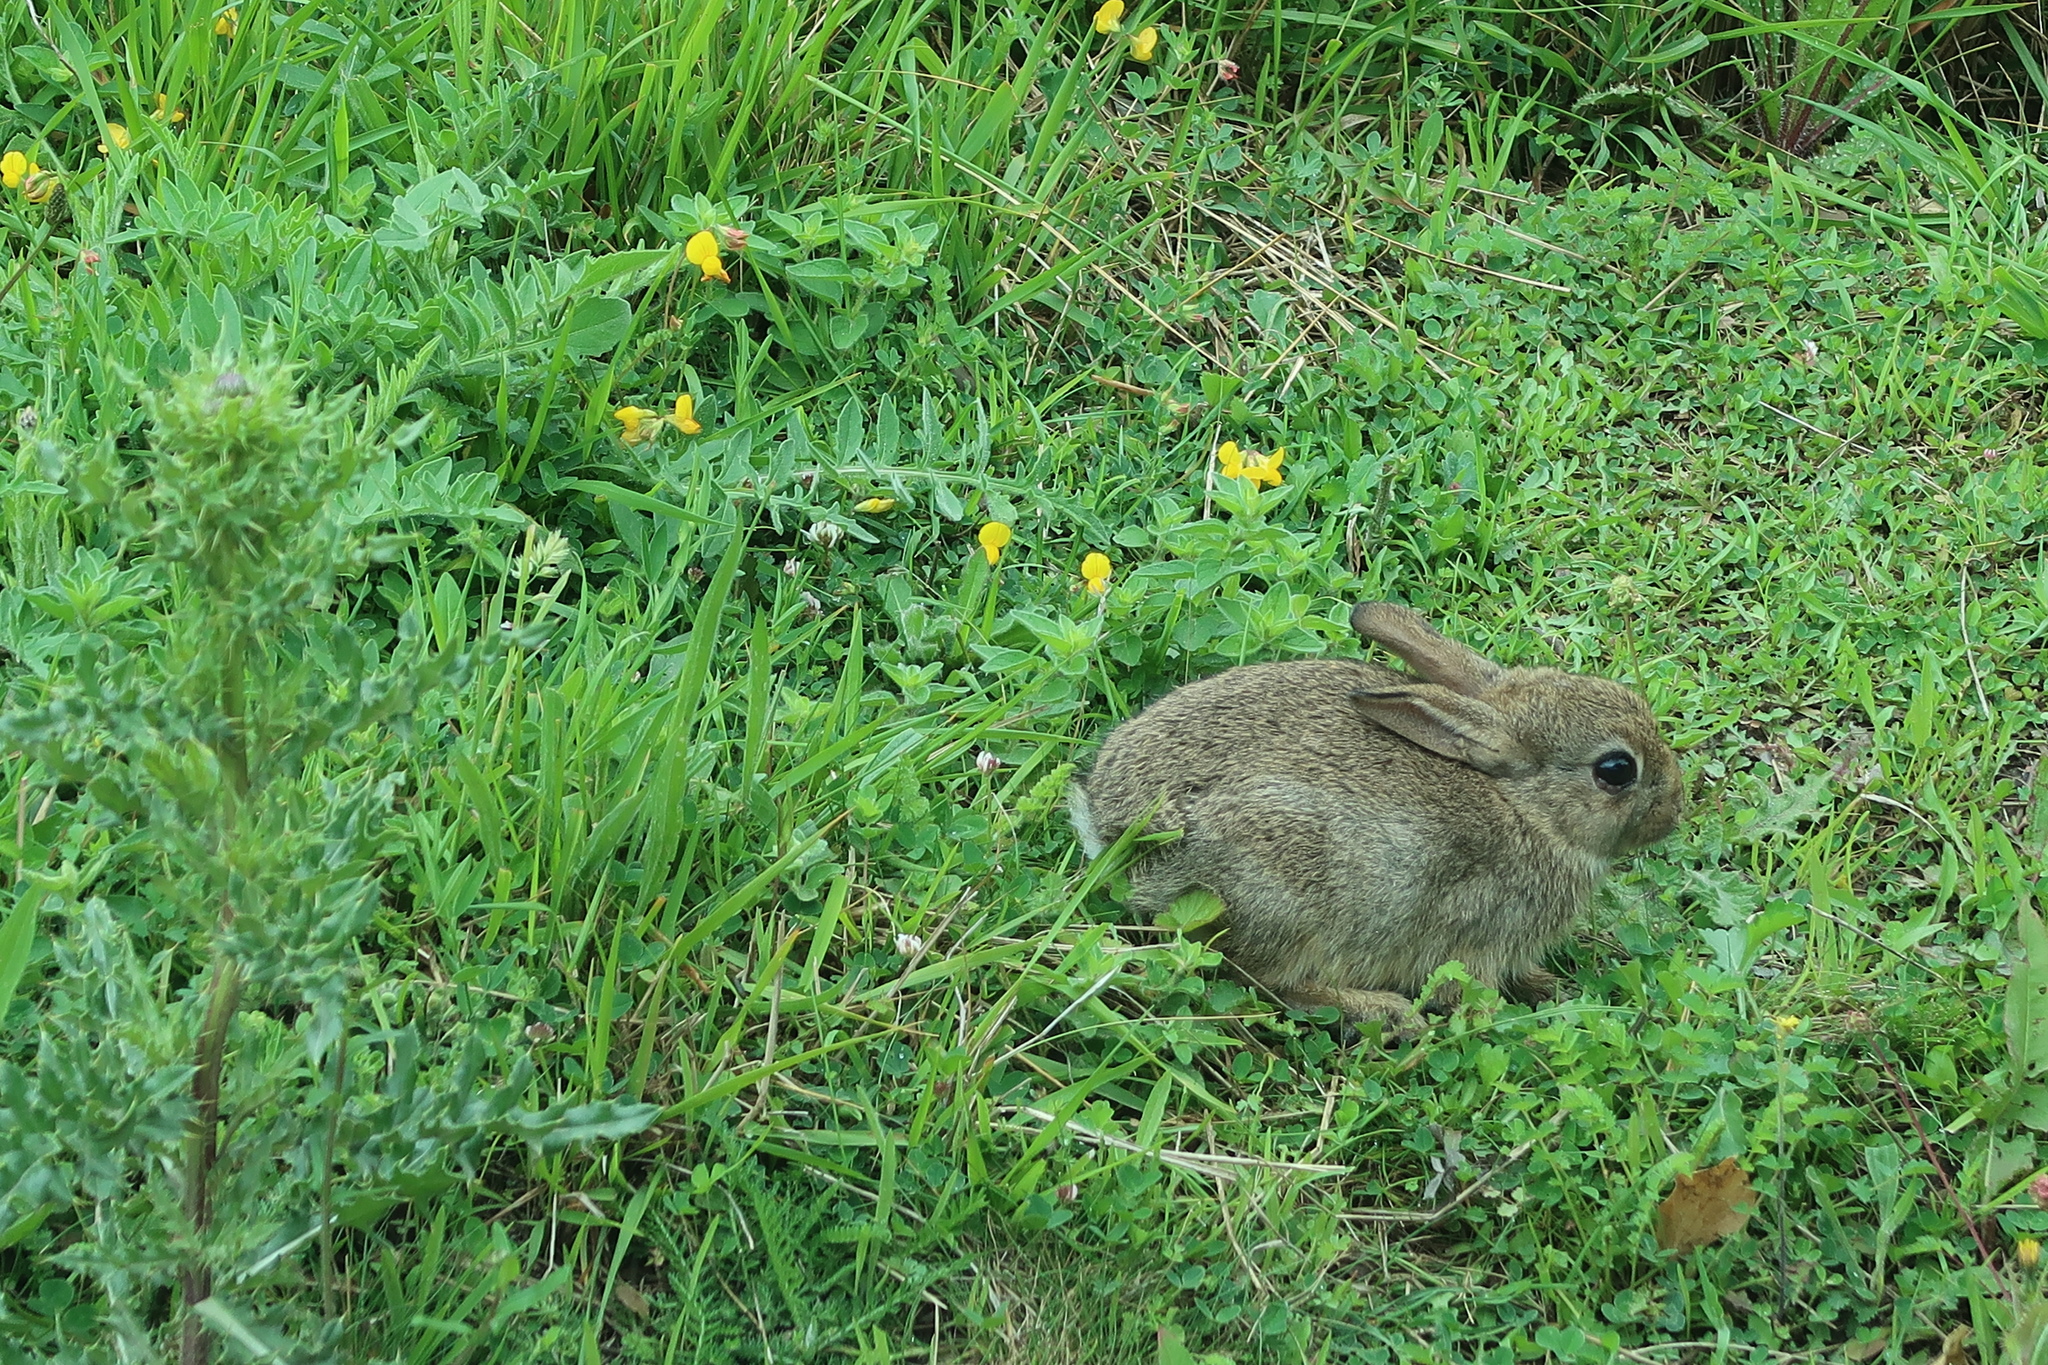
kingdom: Animalia
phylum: Chordata
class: Mammalia
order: Lagomorpha
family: Leporidae
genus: Oryctolagus
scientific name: Oryctolagus cuniculus
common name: European rabbit
